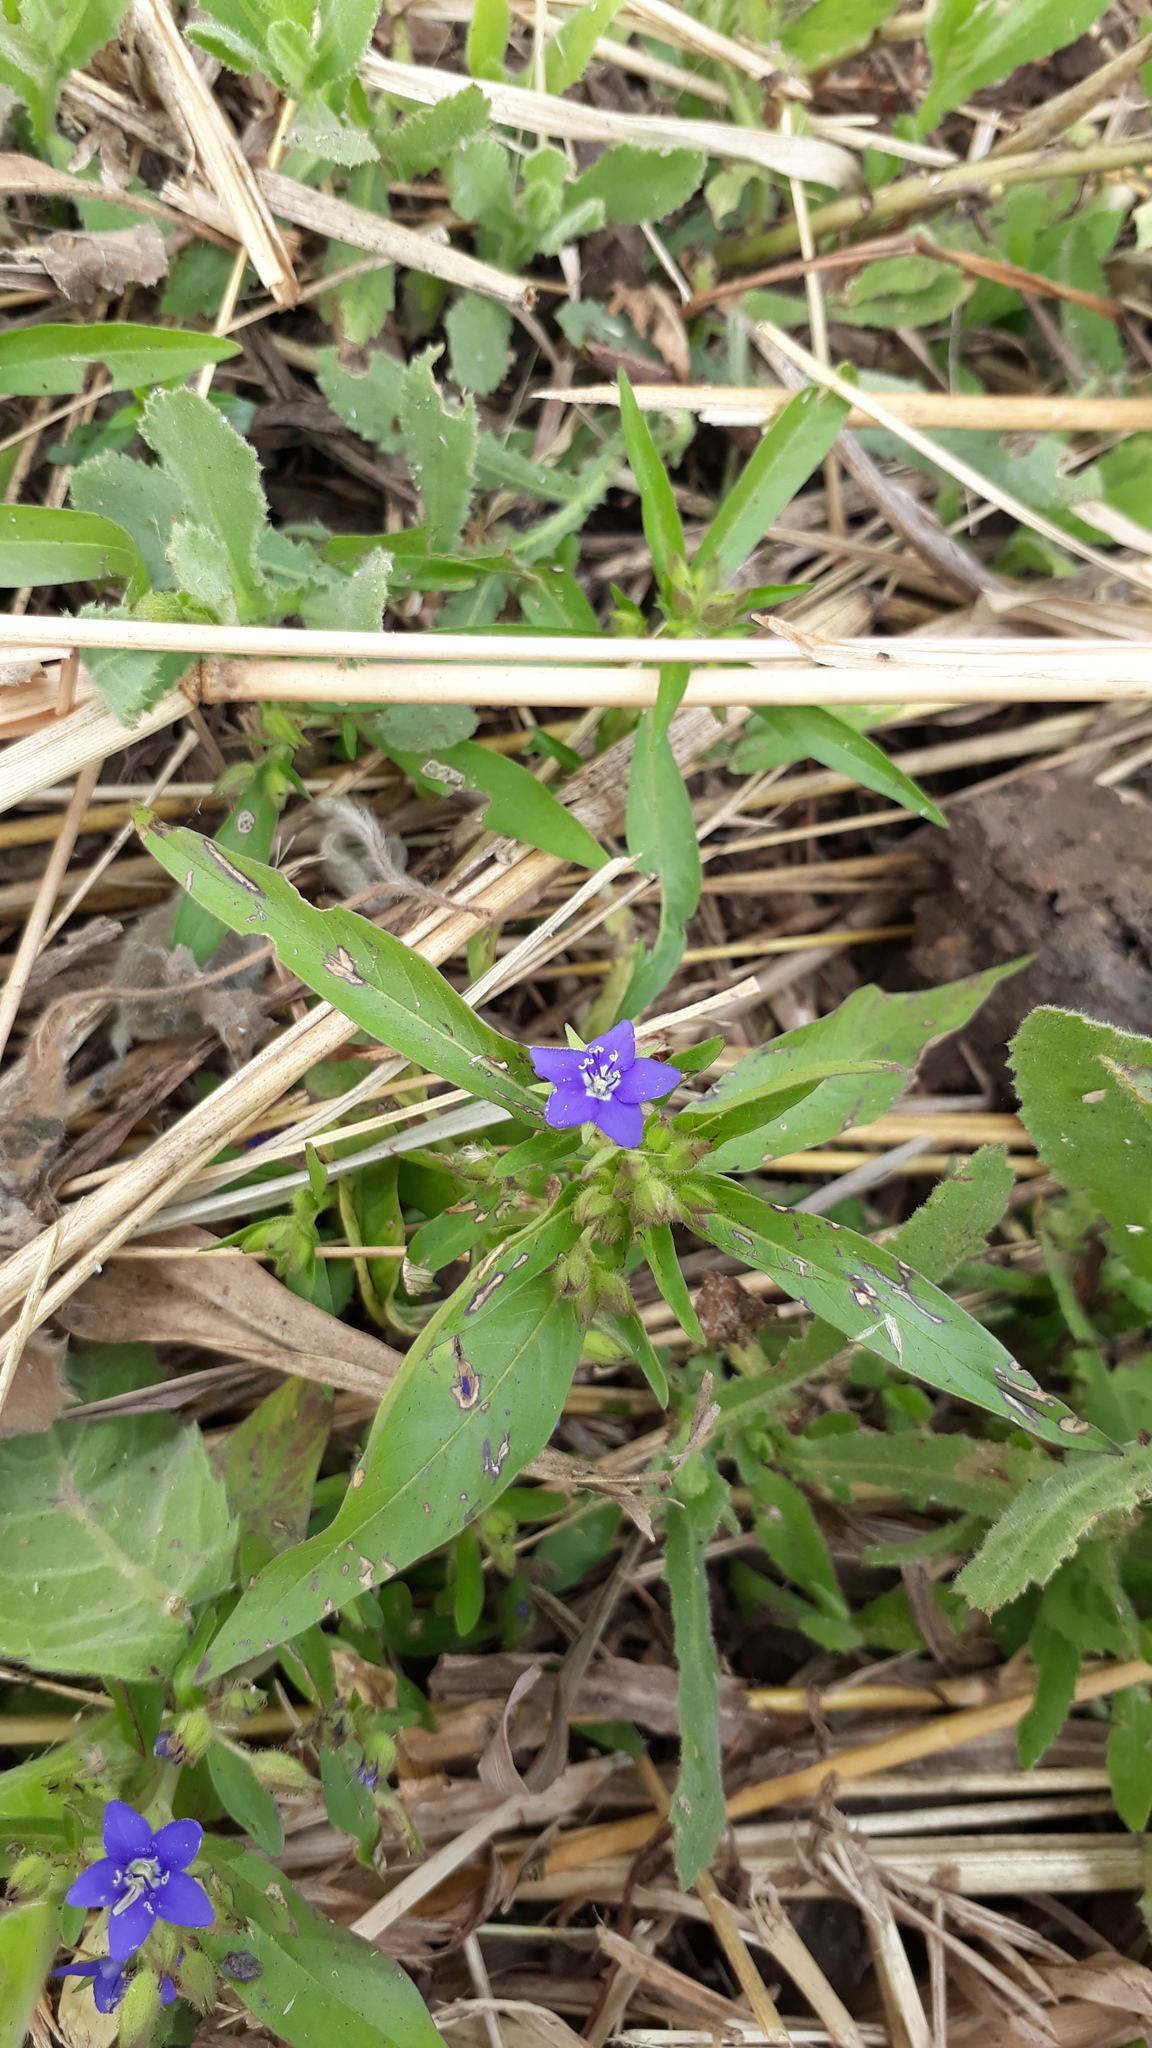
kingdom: Plantae
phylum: Tracheophyta
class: Magnoliopsida
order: Solanales
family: Hydroleaceae
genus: Hydrolea
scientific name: Hydrolea zeylanica
